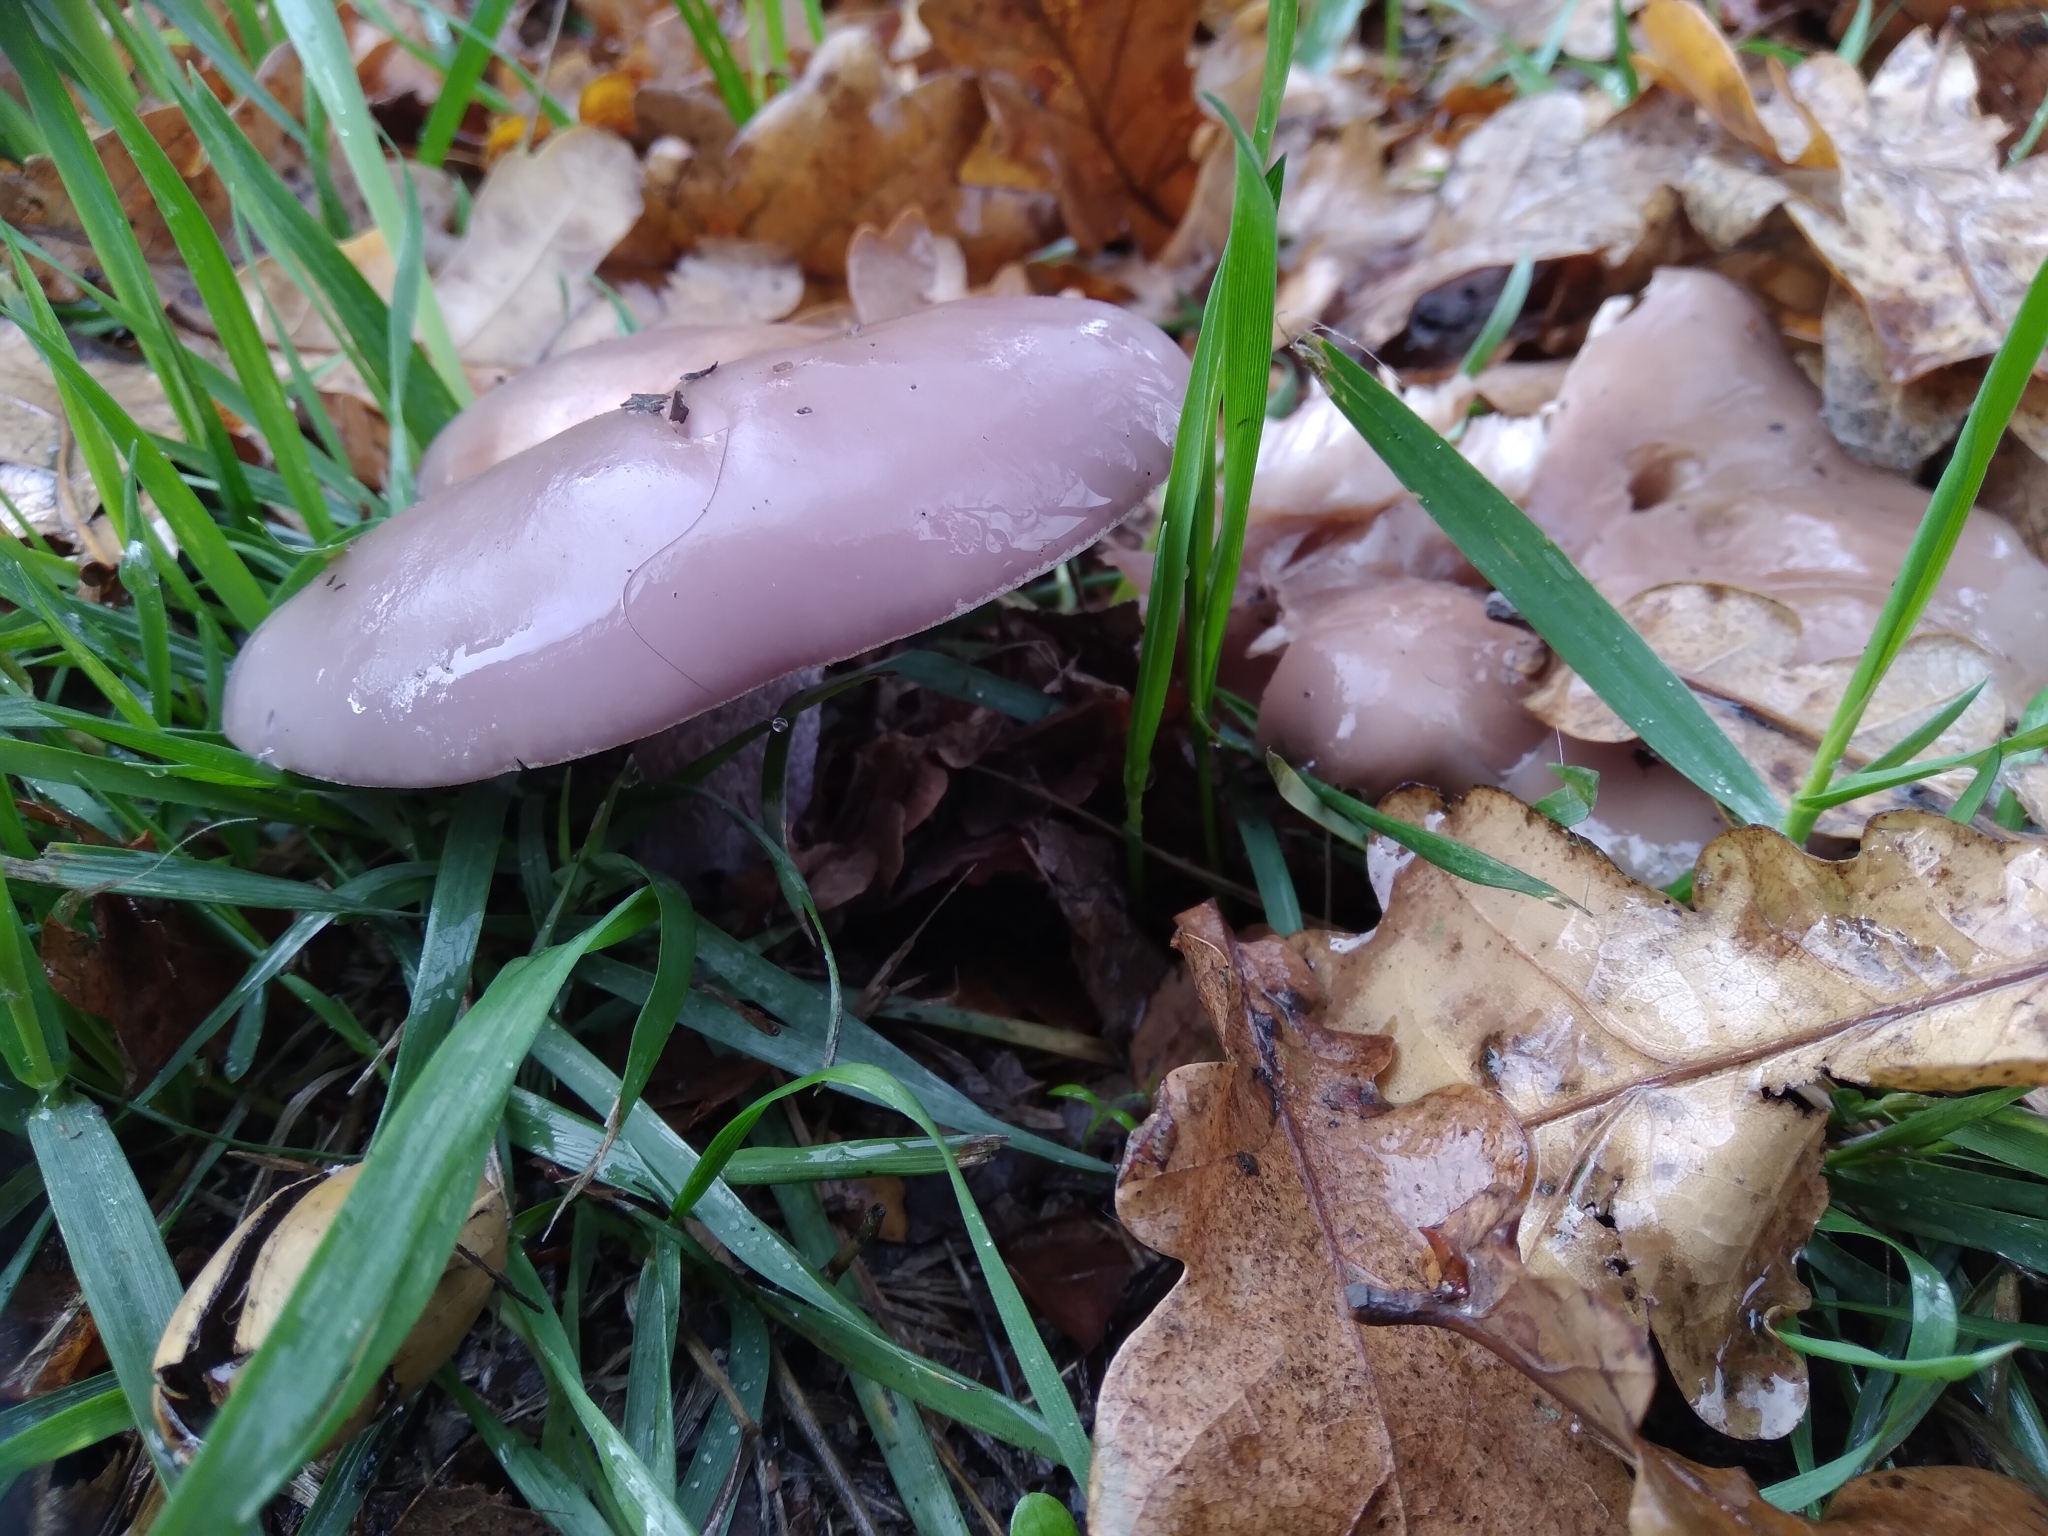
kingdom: Fungi
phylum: Basidiomycota
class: Agaricomycetes
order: Agaricales
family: Tricholomataceae
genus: Collybia
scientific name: Collybia
